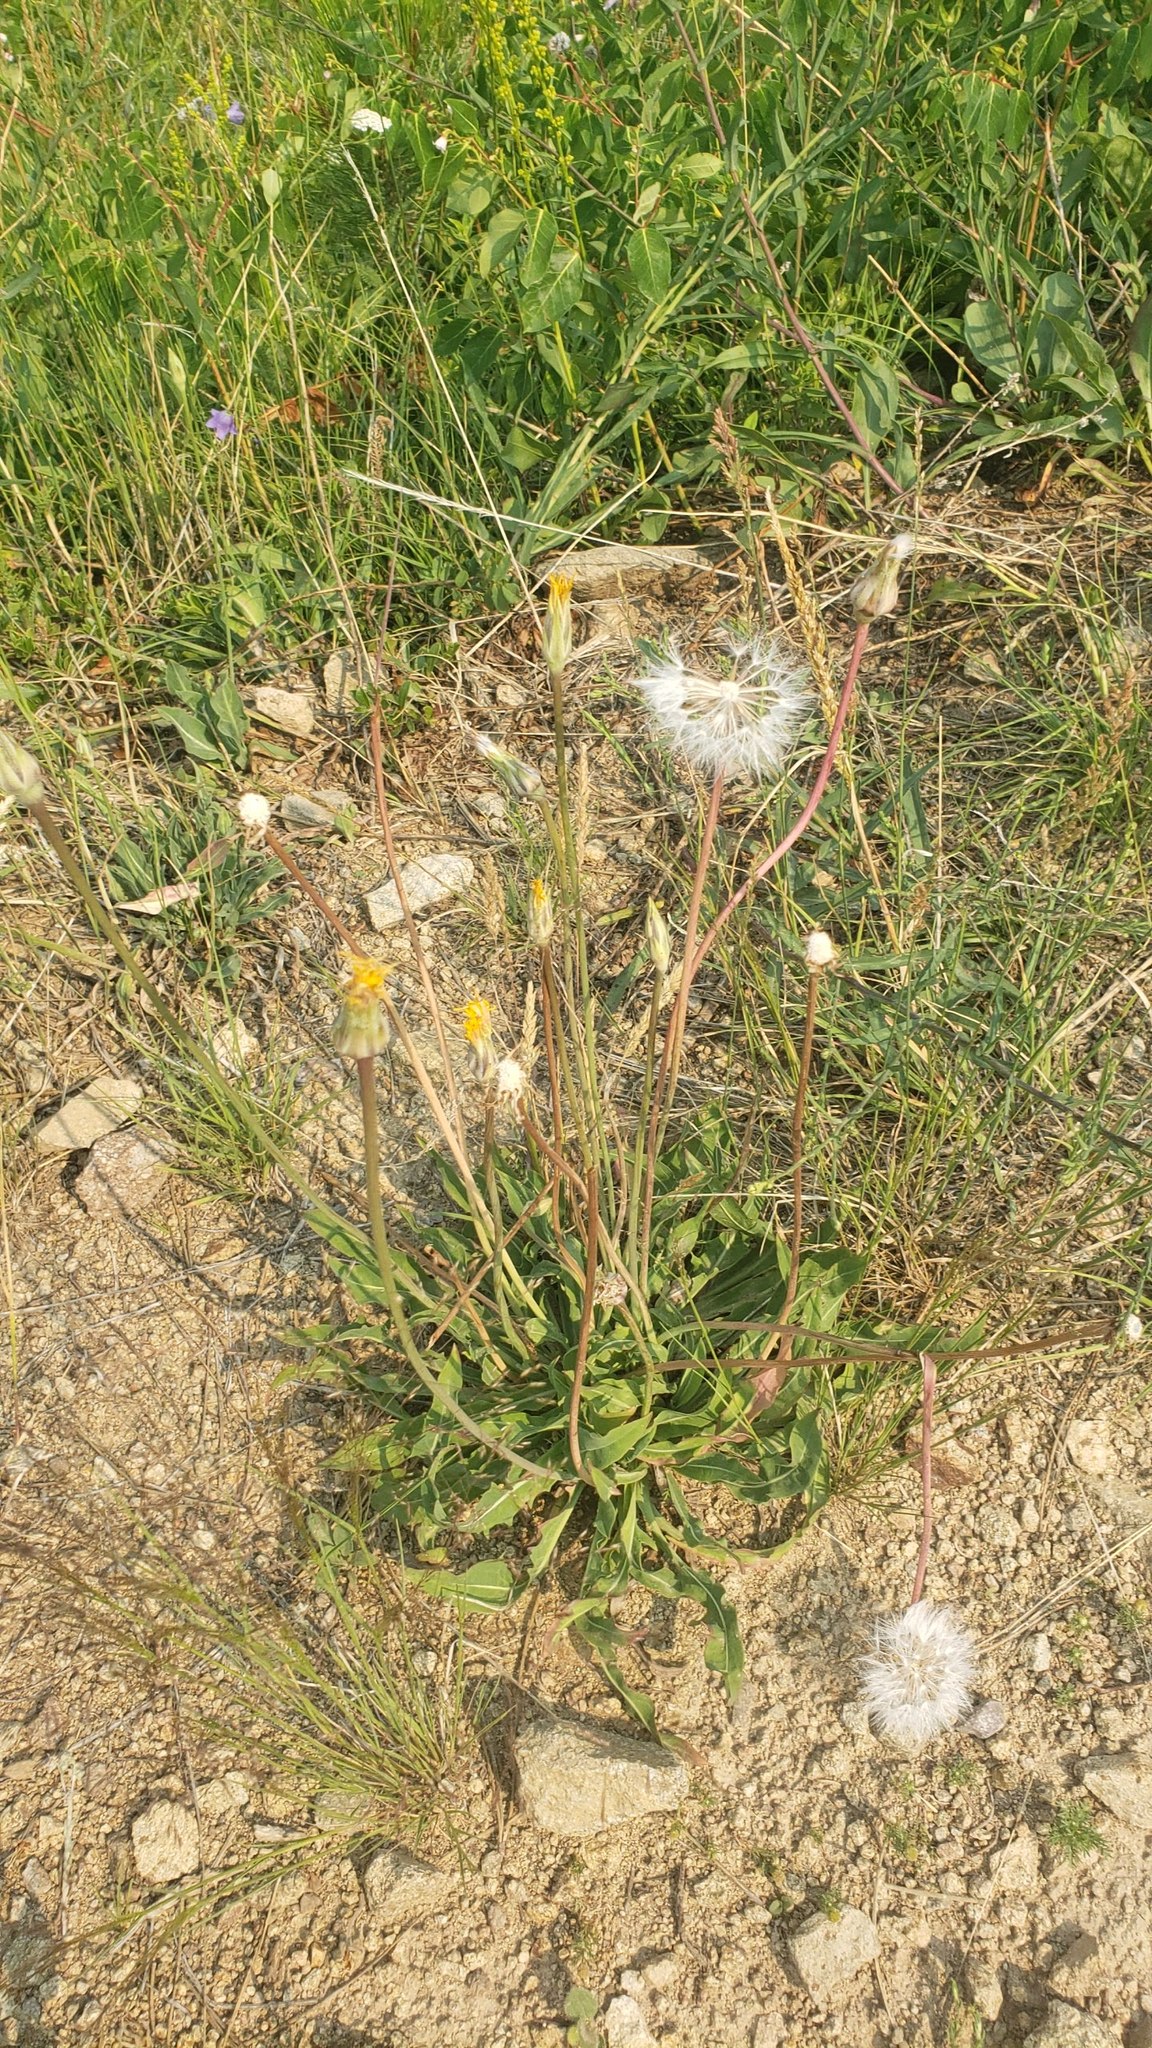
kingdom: Plantae
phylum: Tracheophyta
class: Magnoliopsida
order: Asterales
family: Asteraceae
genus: Taraxacum
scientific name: Taraxacum officinale
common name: Common dandelion
